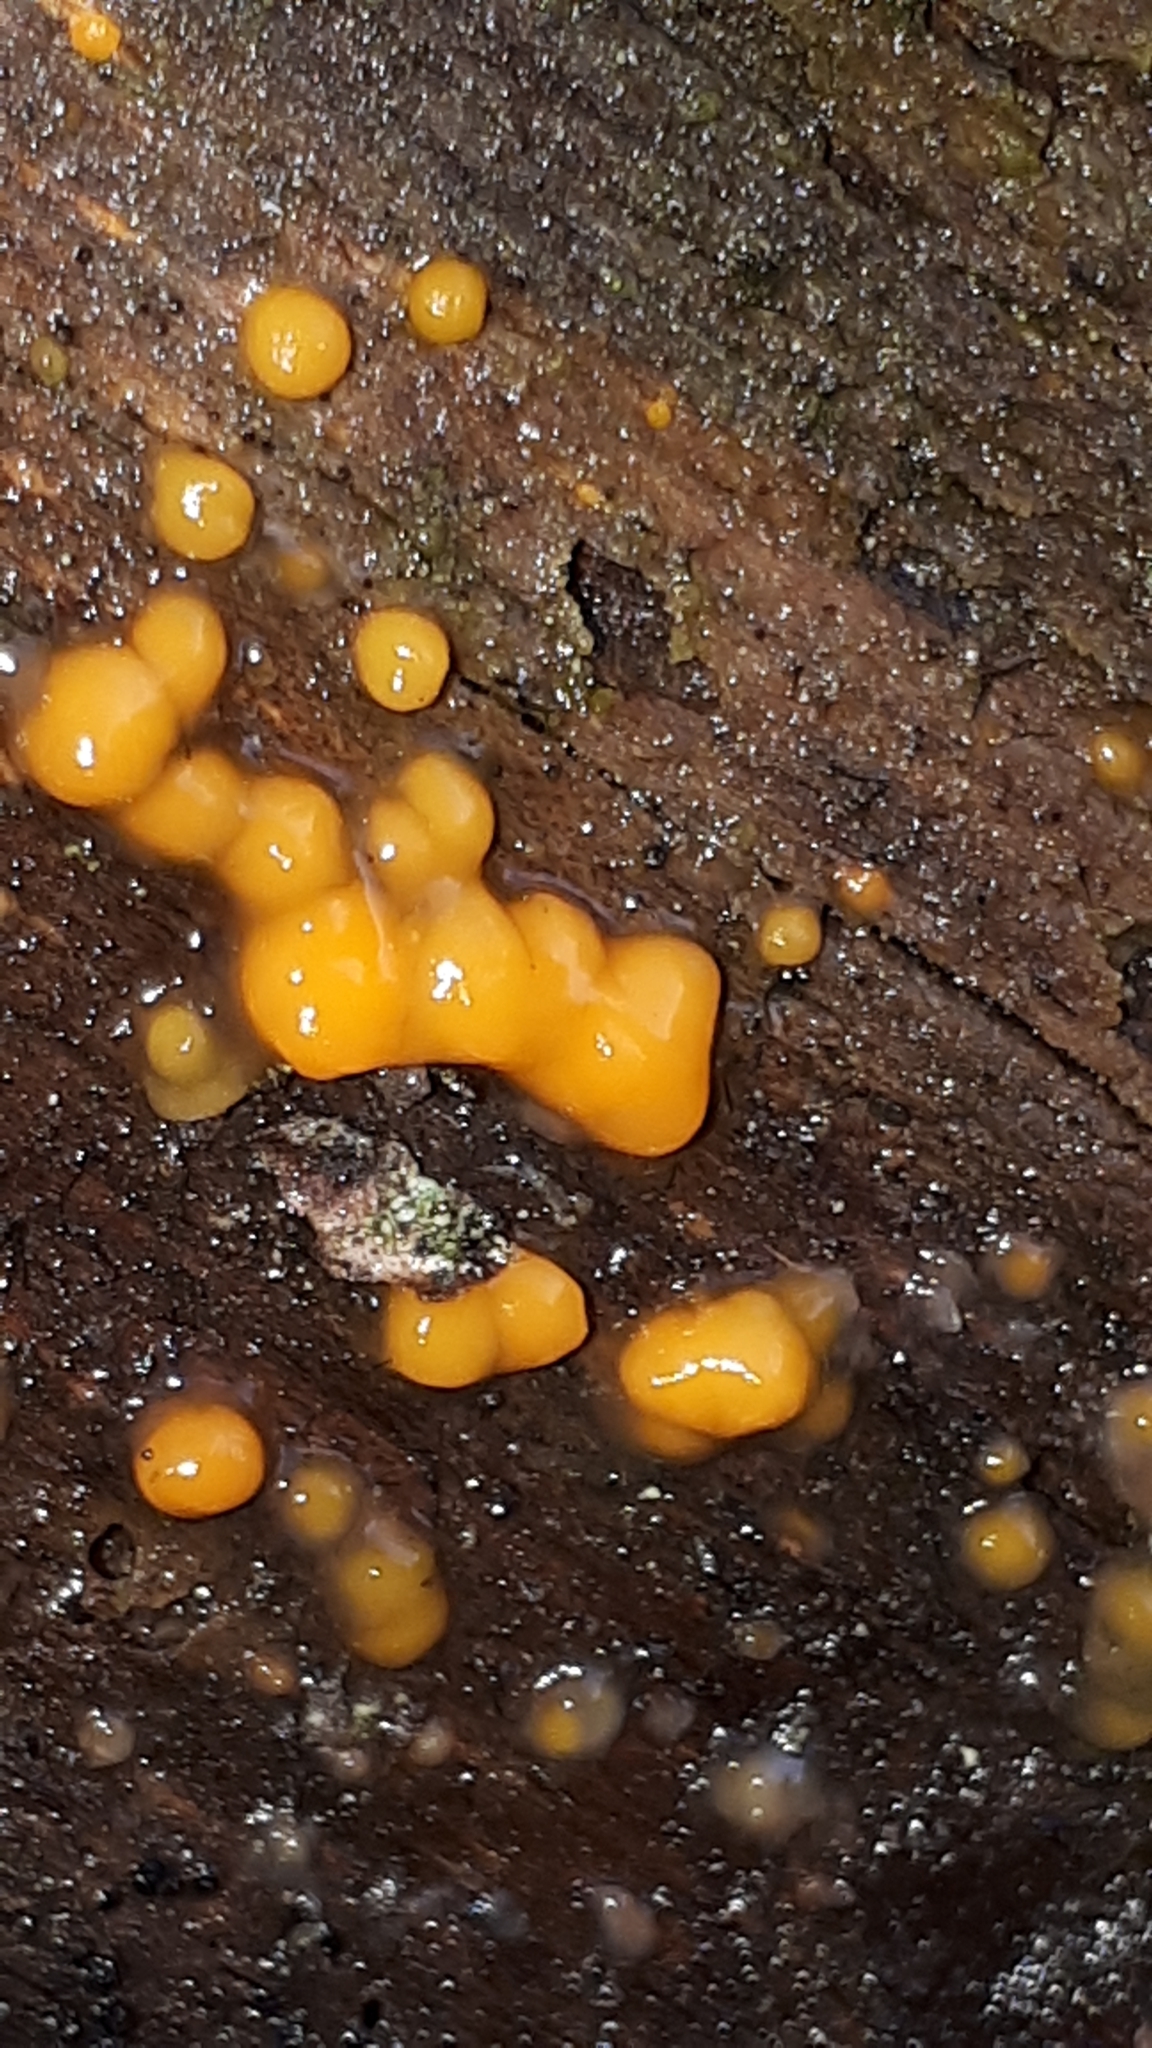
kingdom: Fungi
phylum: Basidiomycota
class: Dacrymycetes
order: Dacrymycetales
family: Dacrymycetaceae
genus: Dacrymyces
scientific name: Dacrymyces stillatus
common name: Common jelly spot
